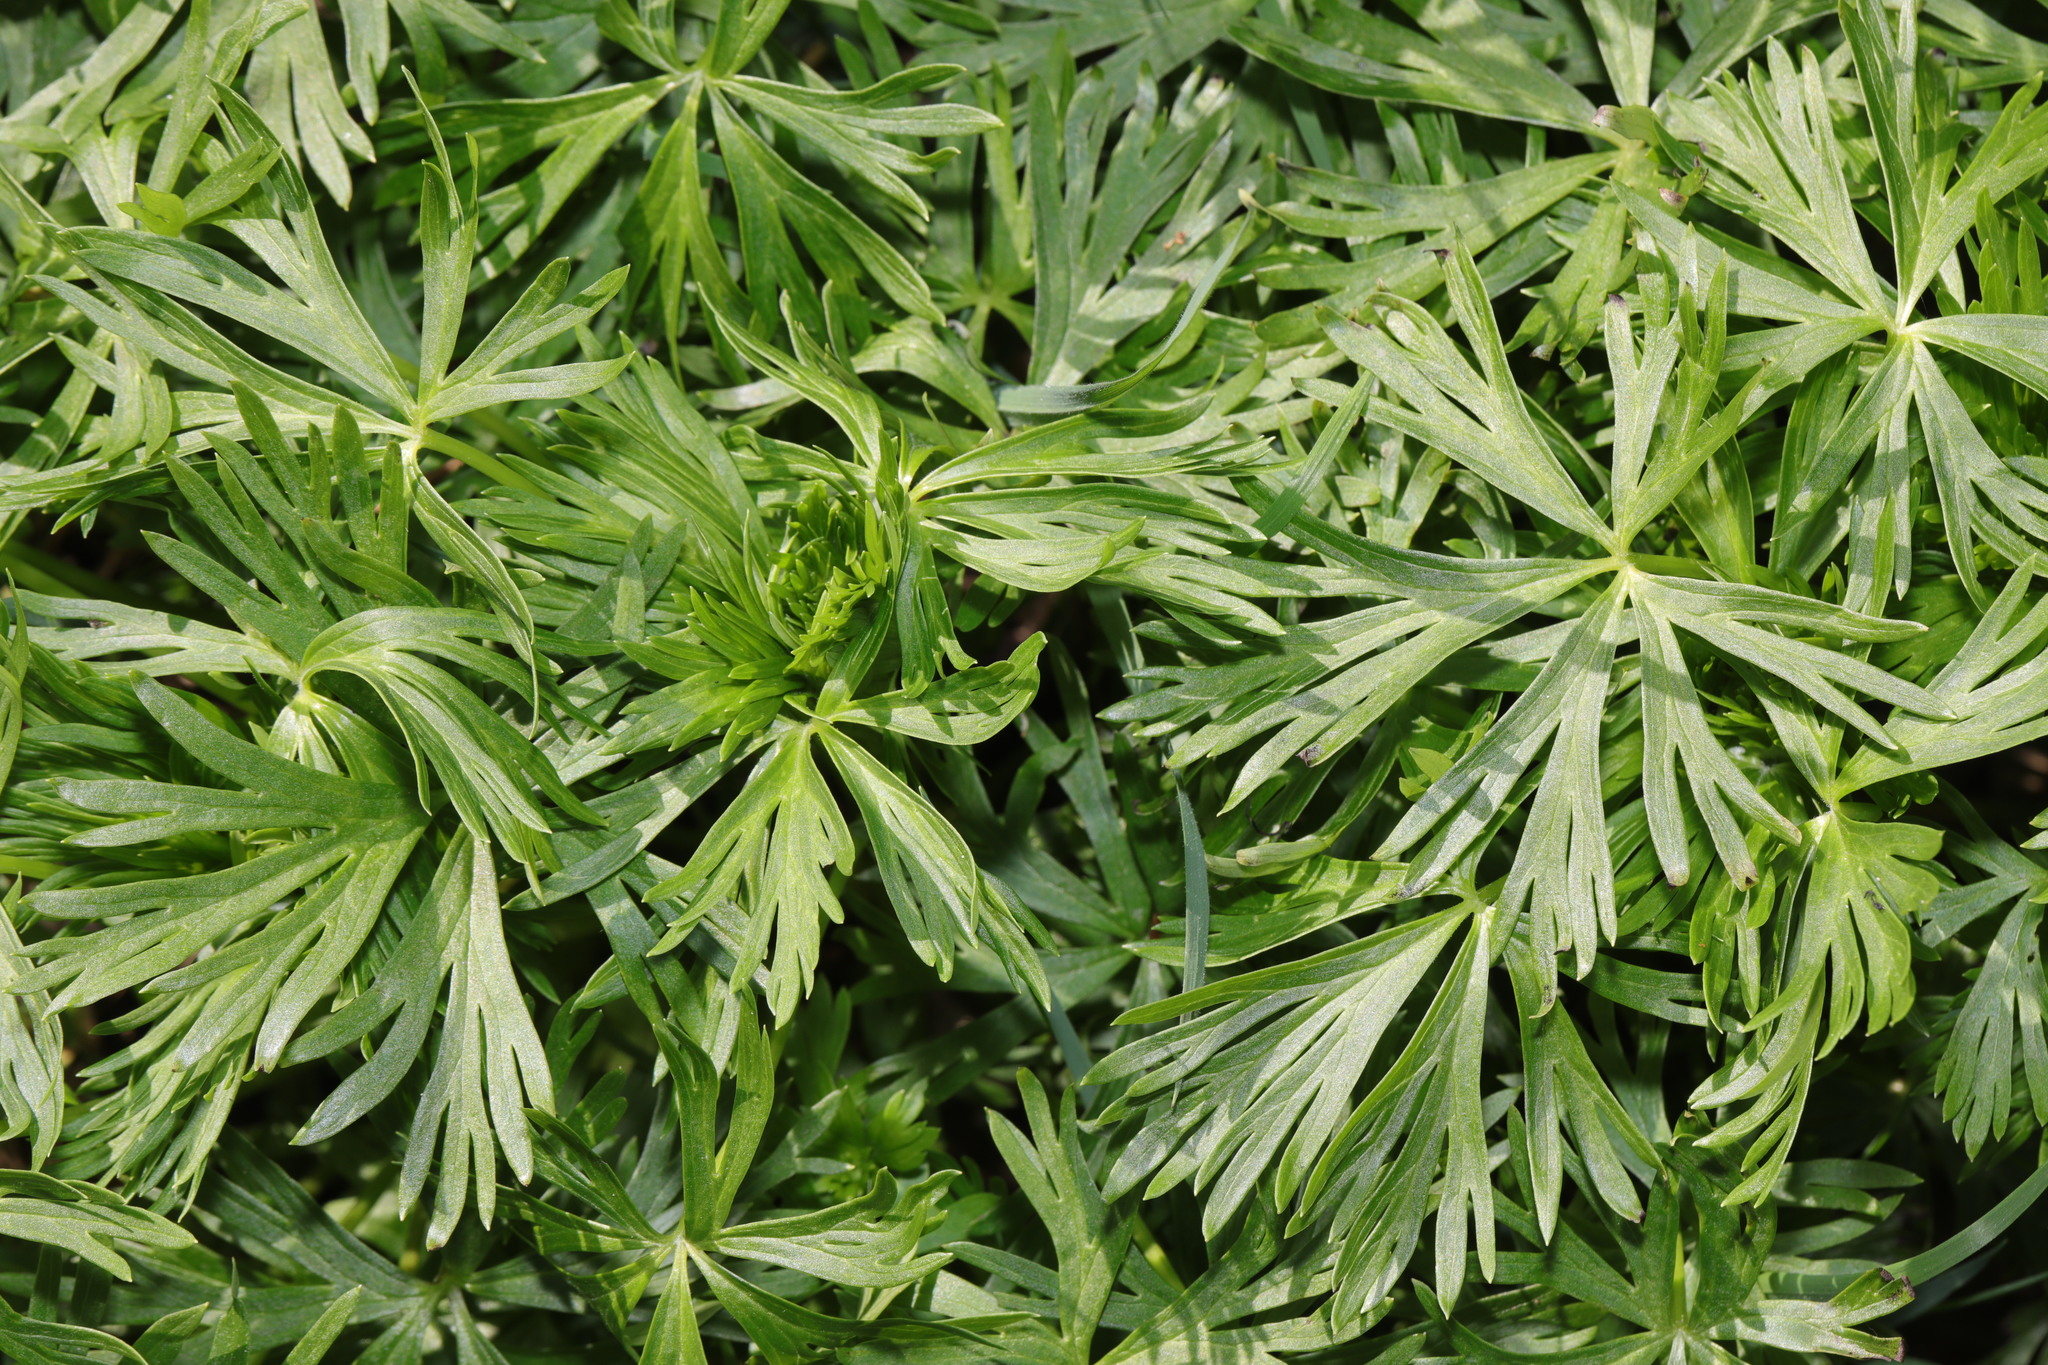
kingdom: Plantae
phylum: Tracheophyta
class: Magnoliopsida
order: Geraniales
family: Geraniaceae
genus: Geranium
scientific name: Geranium dissectum
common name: Cut-leaved crane's-bill
